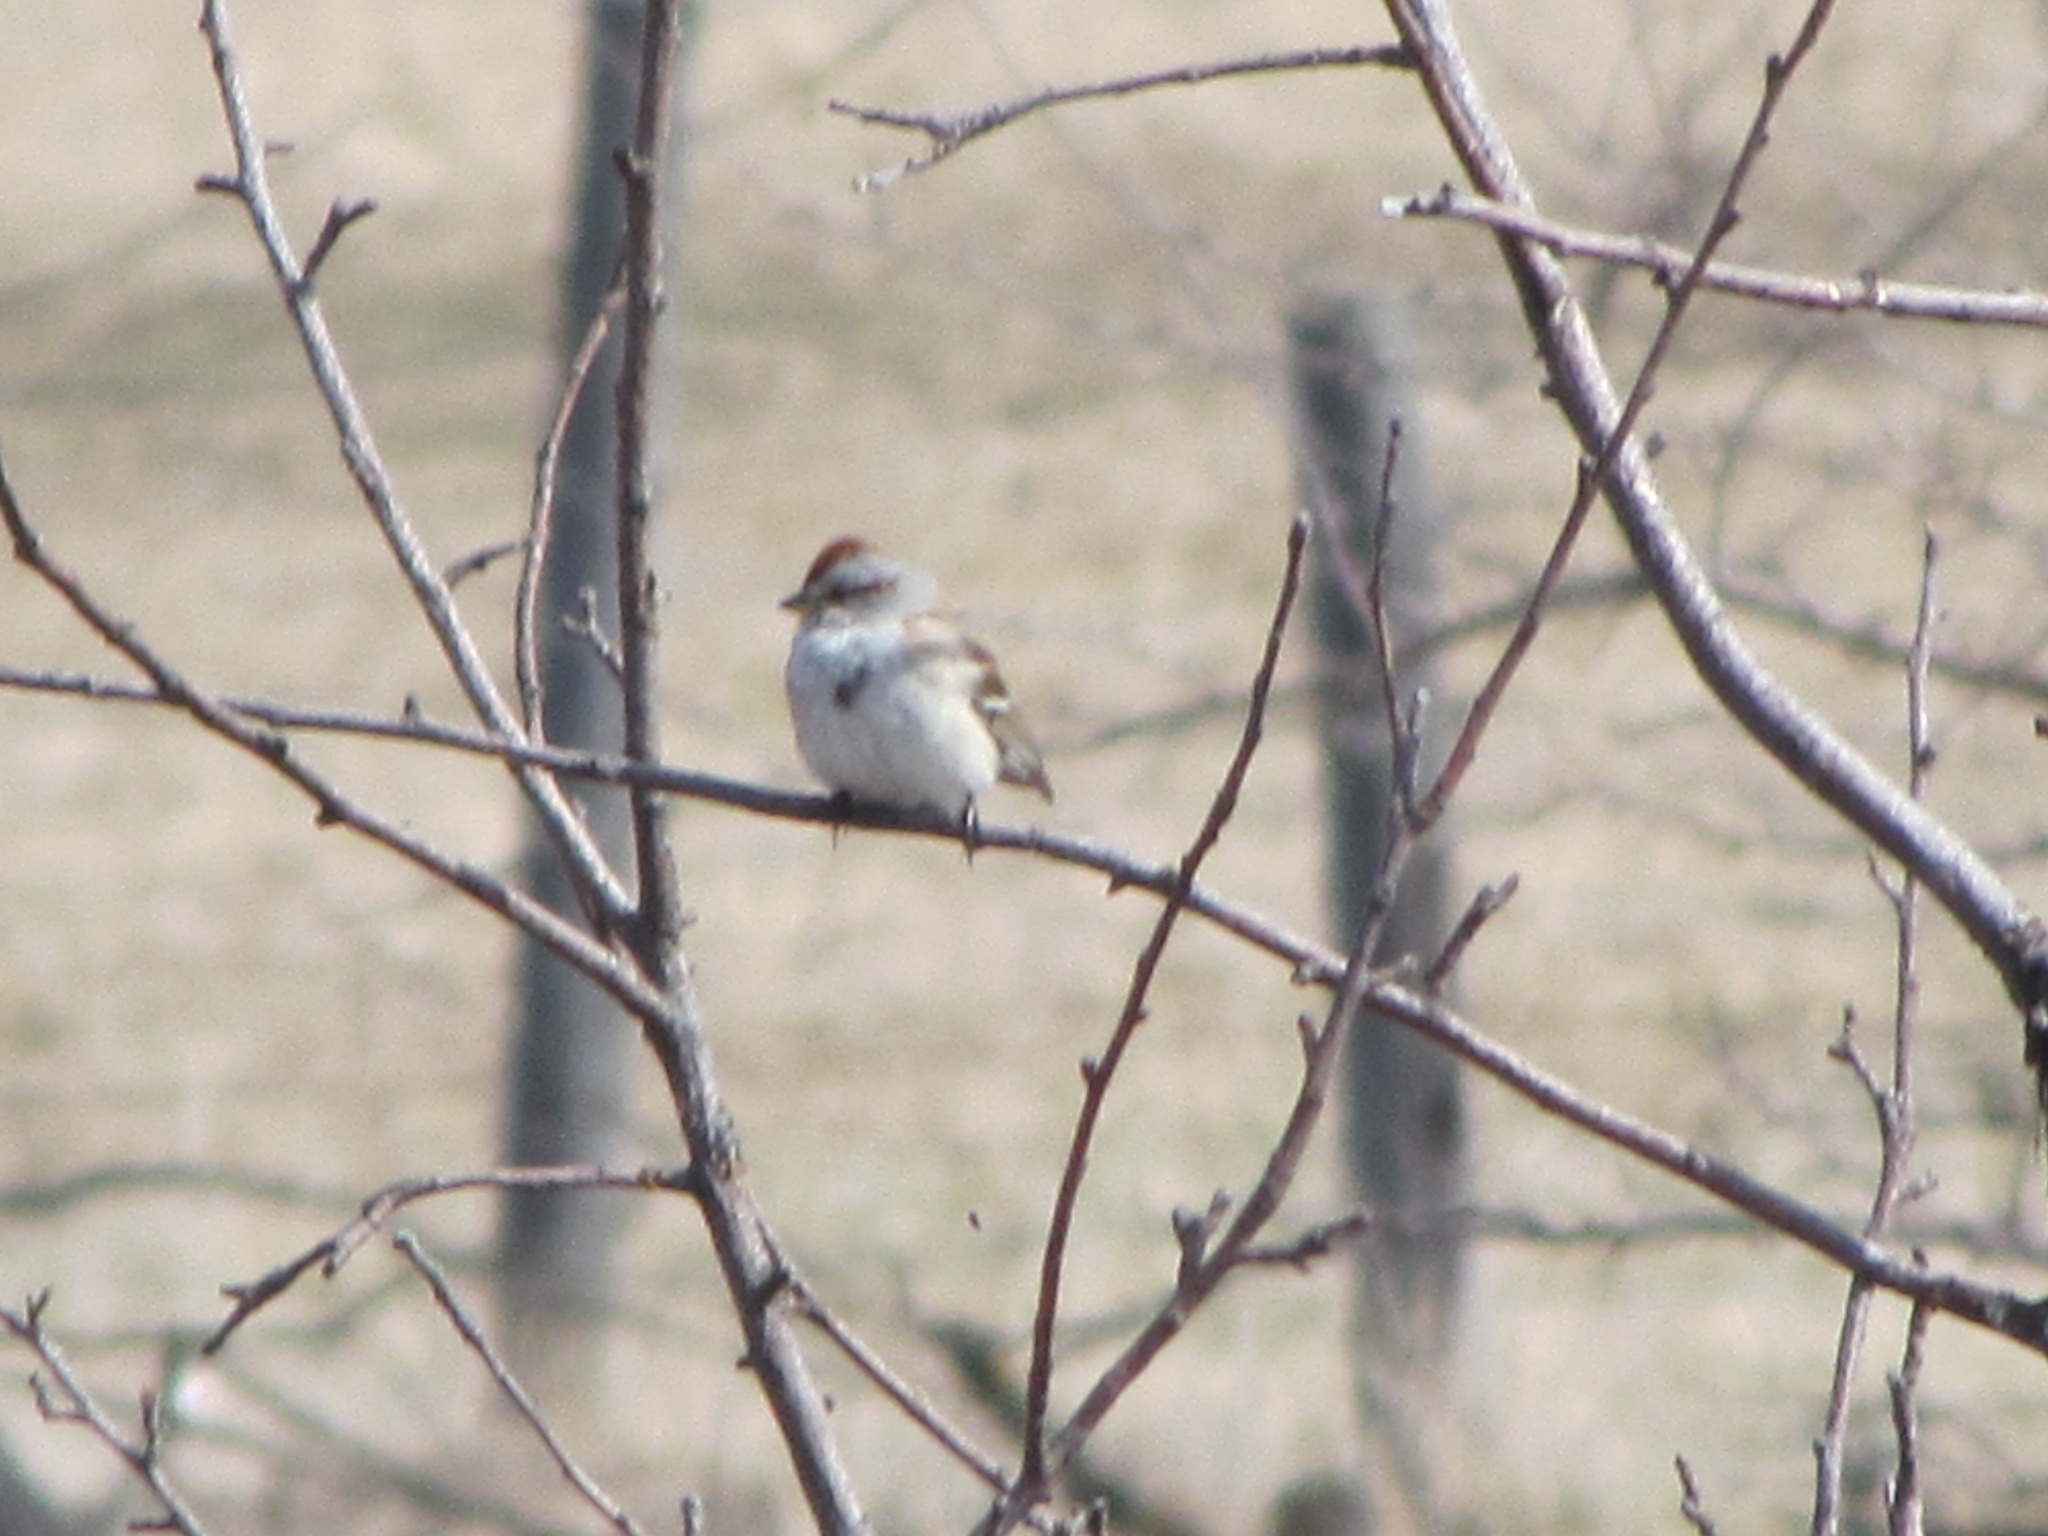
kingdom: Animalia
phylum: Chordata
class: Aves
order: Passeriformes
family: Passerellidae
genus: Spizelloides
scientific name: Spizelloides arborea
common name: American tree sparrow
